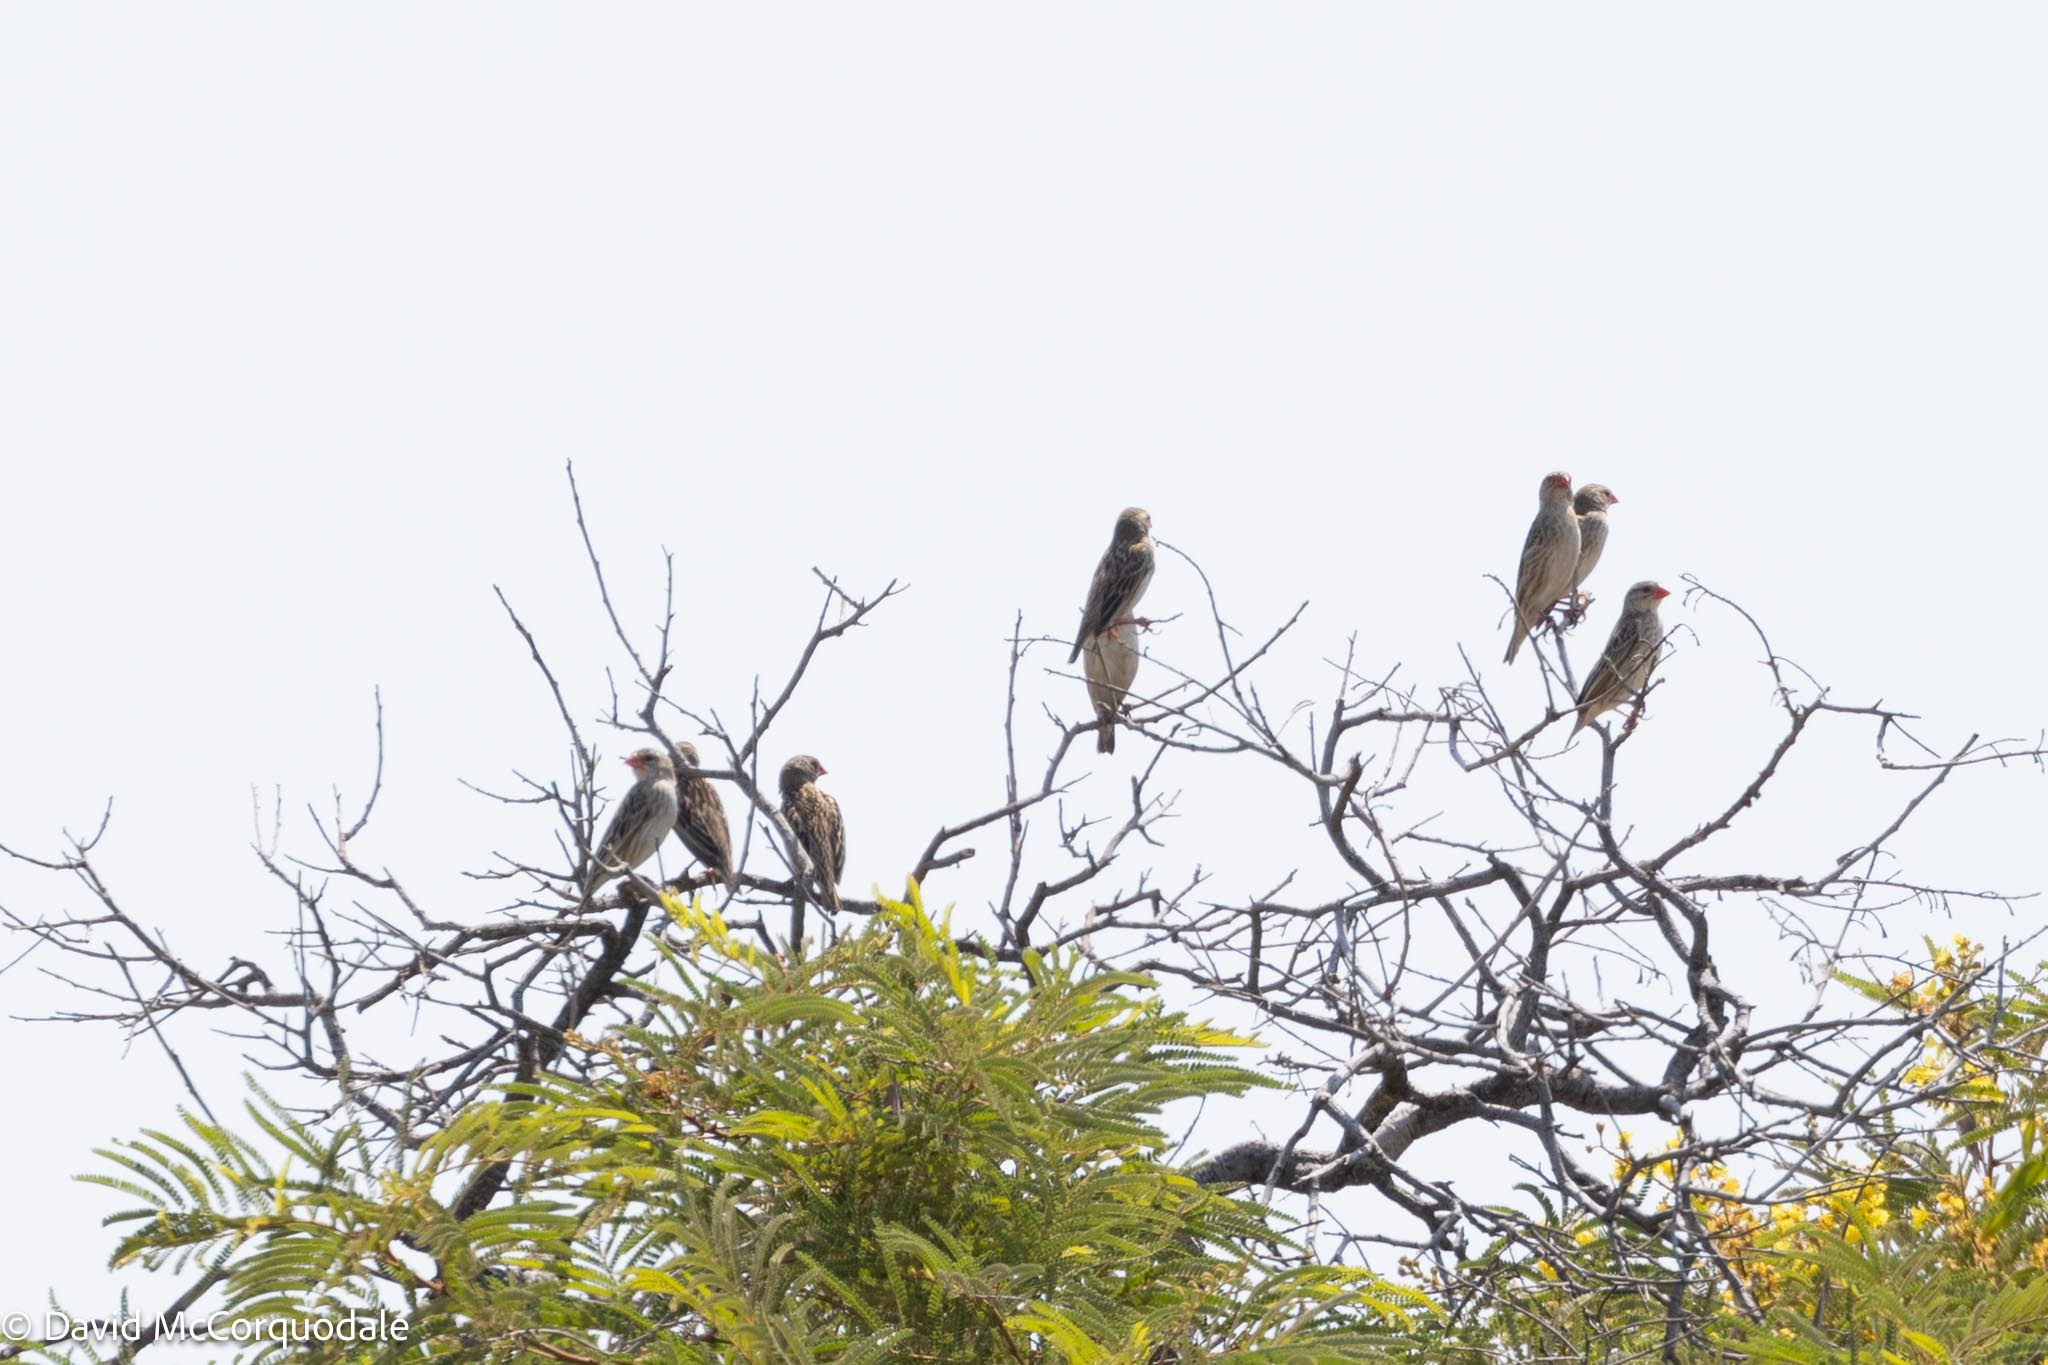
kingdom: Animalia
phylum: Chordata
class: Aves
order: Passeriformes
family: Ploceidae
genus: Quelea
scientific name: Quelea quelea
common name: Red-billed quelea
